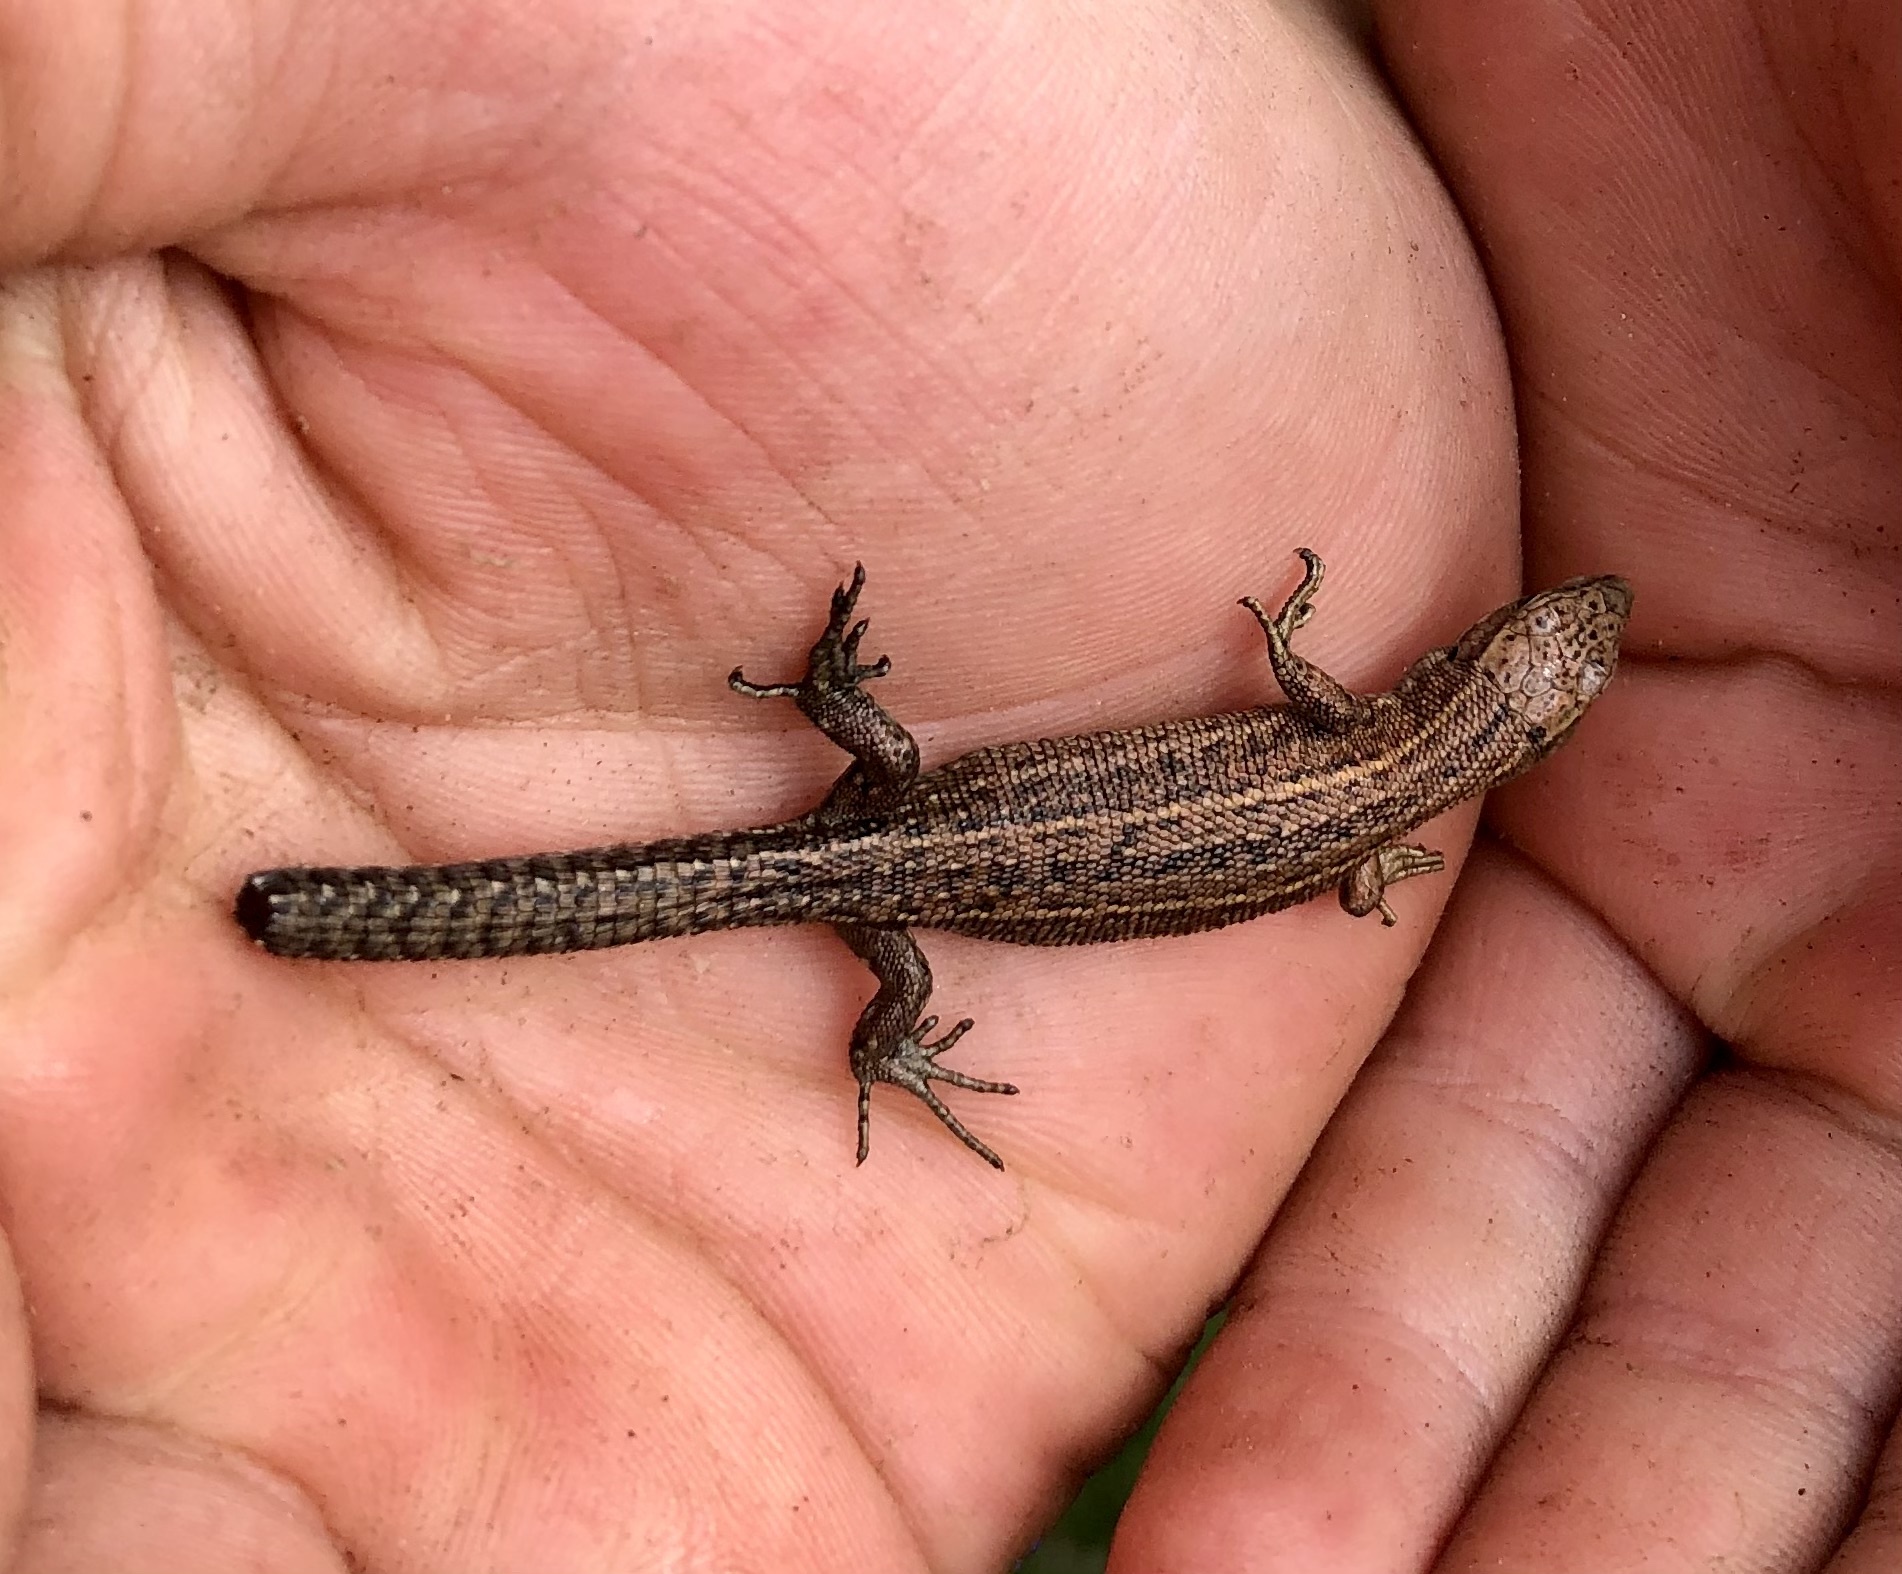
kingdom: Animalia
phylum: Chordata
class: Squamata
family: Lacertidae
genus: Zootoca
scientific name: Zootoca vivipara
